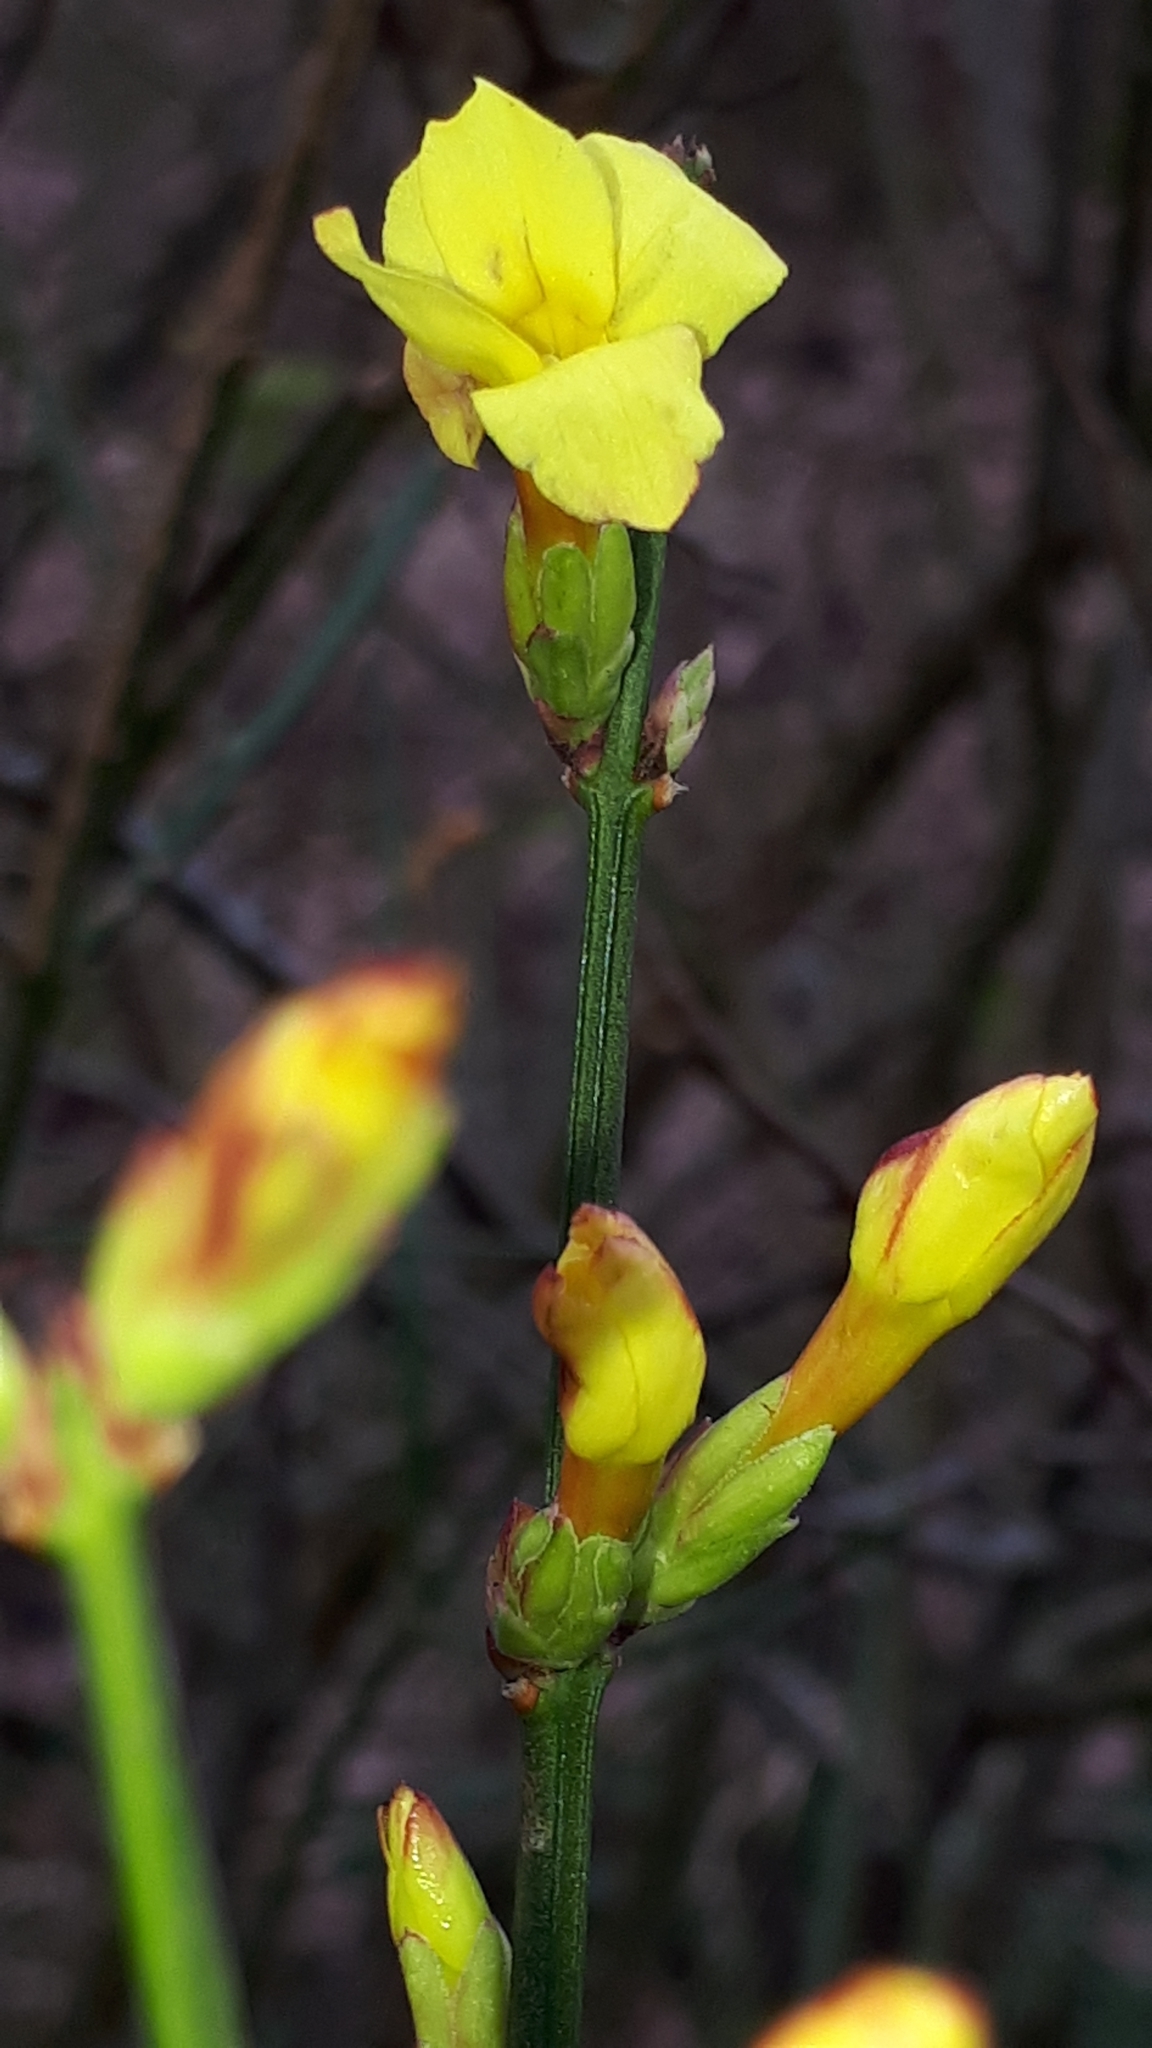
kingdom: Plantae
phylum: Tracheophyta
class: Magnoliopsida
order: Lamiales
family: Oleaceae
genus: Jasminum
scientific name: Jasminum nudiflorum
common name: Winter jasmine
